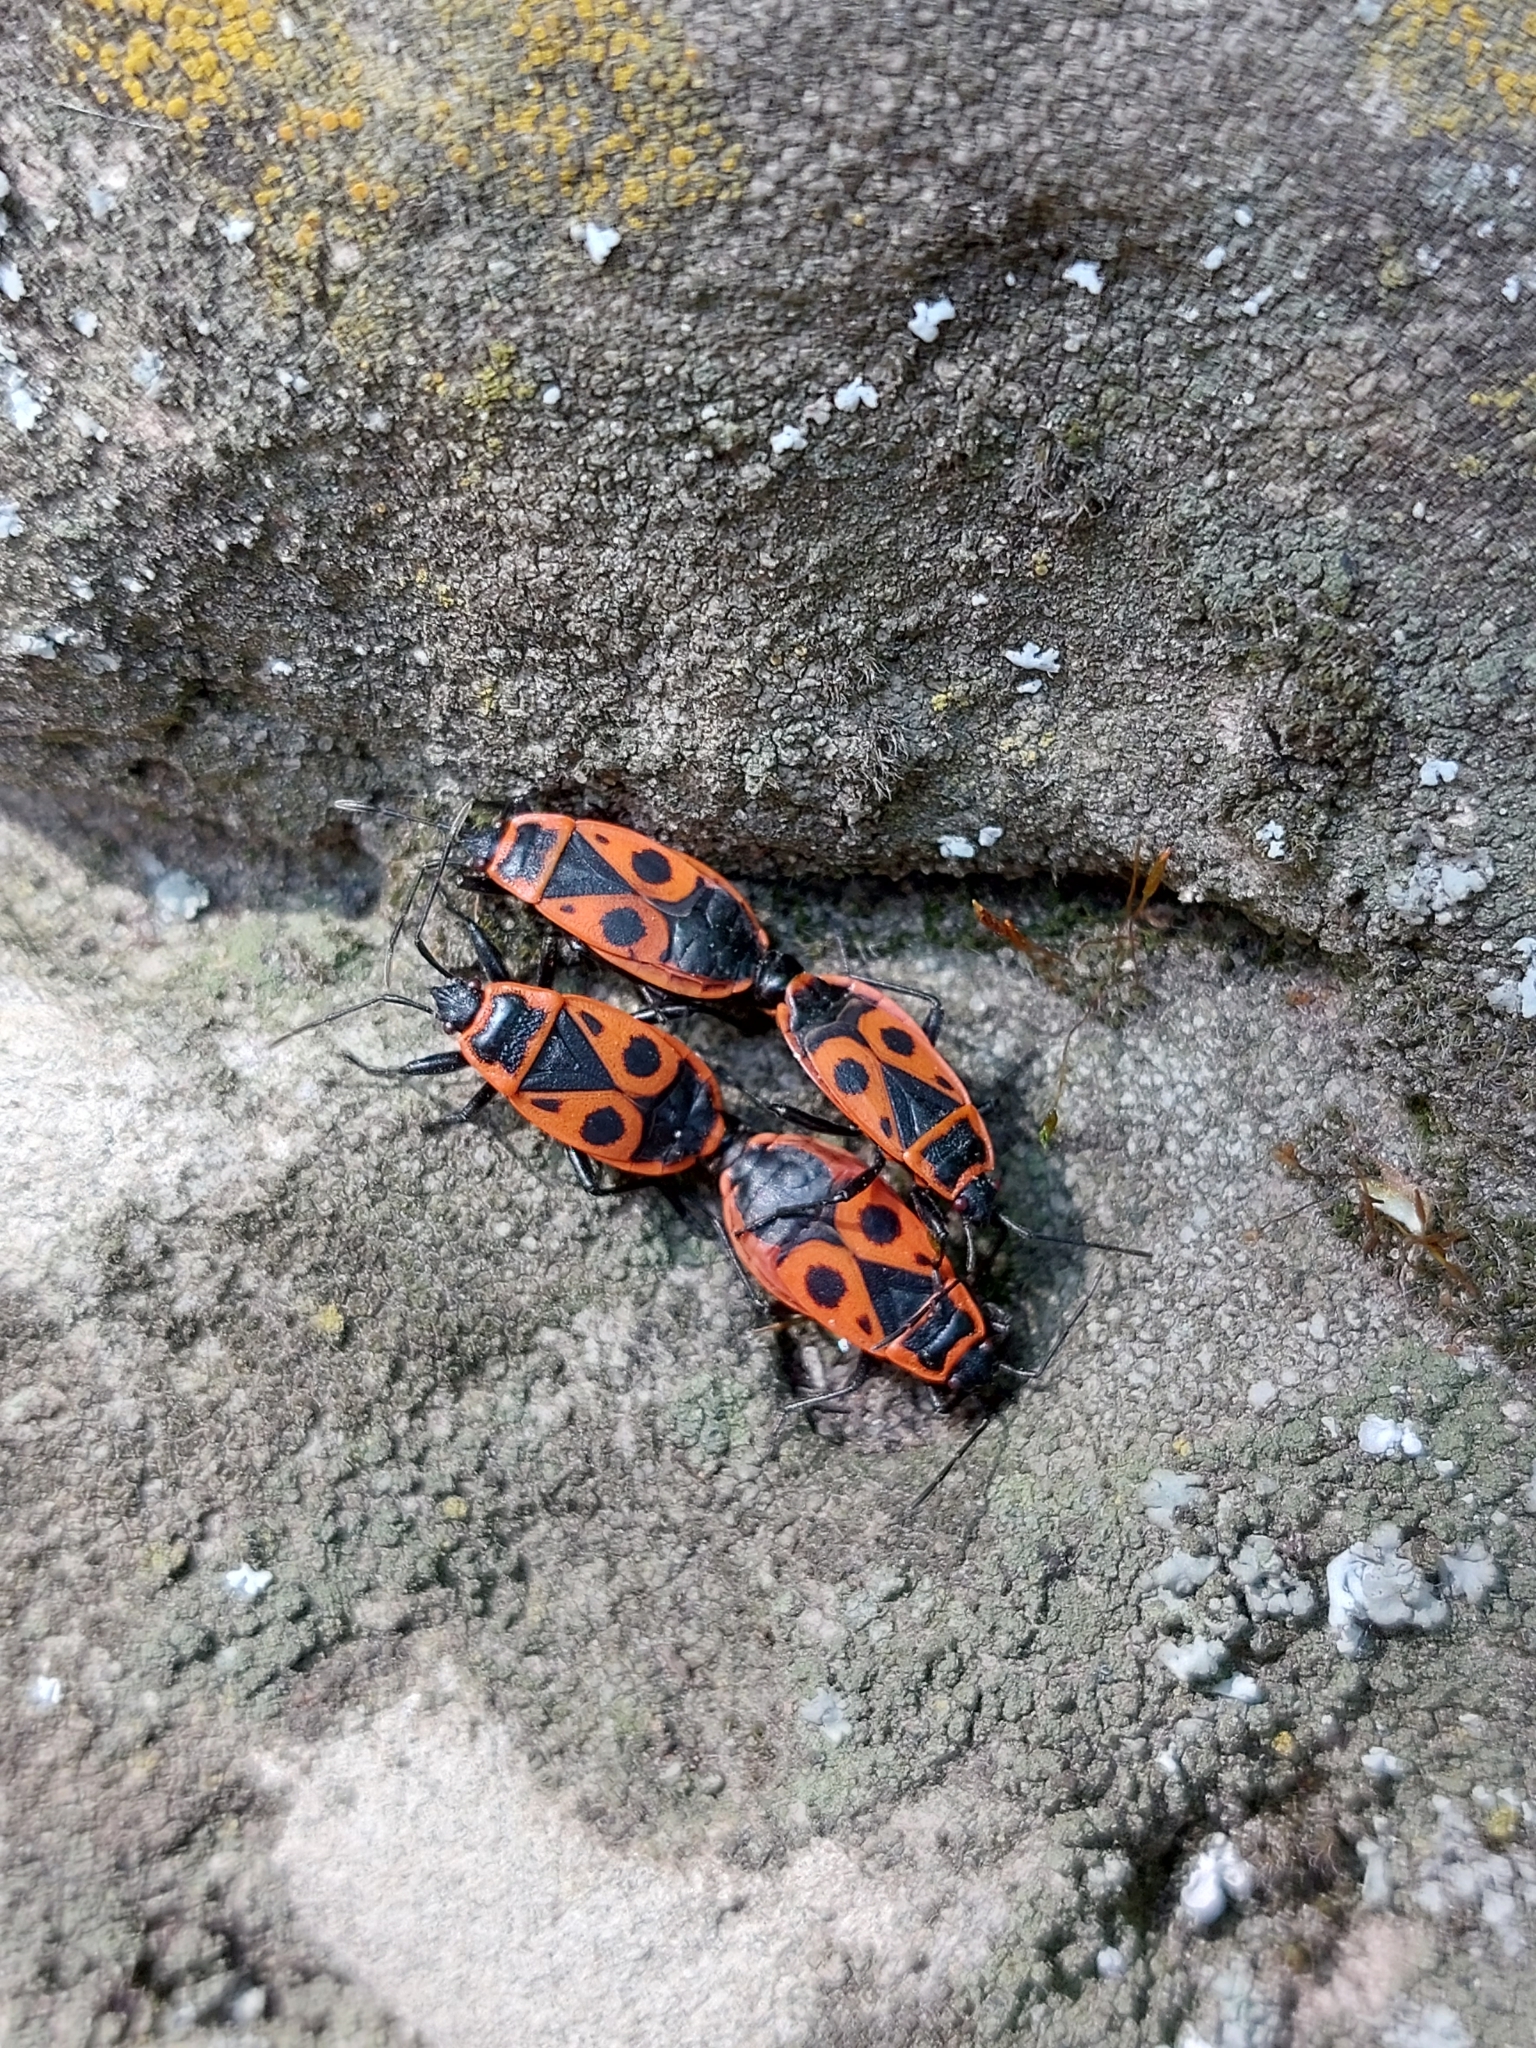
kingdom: Animalia
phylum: Arthropoda
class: Insecta
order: Hemiptera
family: Pyrrhocoridae
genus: Pyrrhocoris
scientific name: Pyrrhocoris apterus
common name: Firebug
